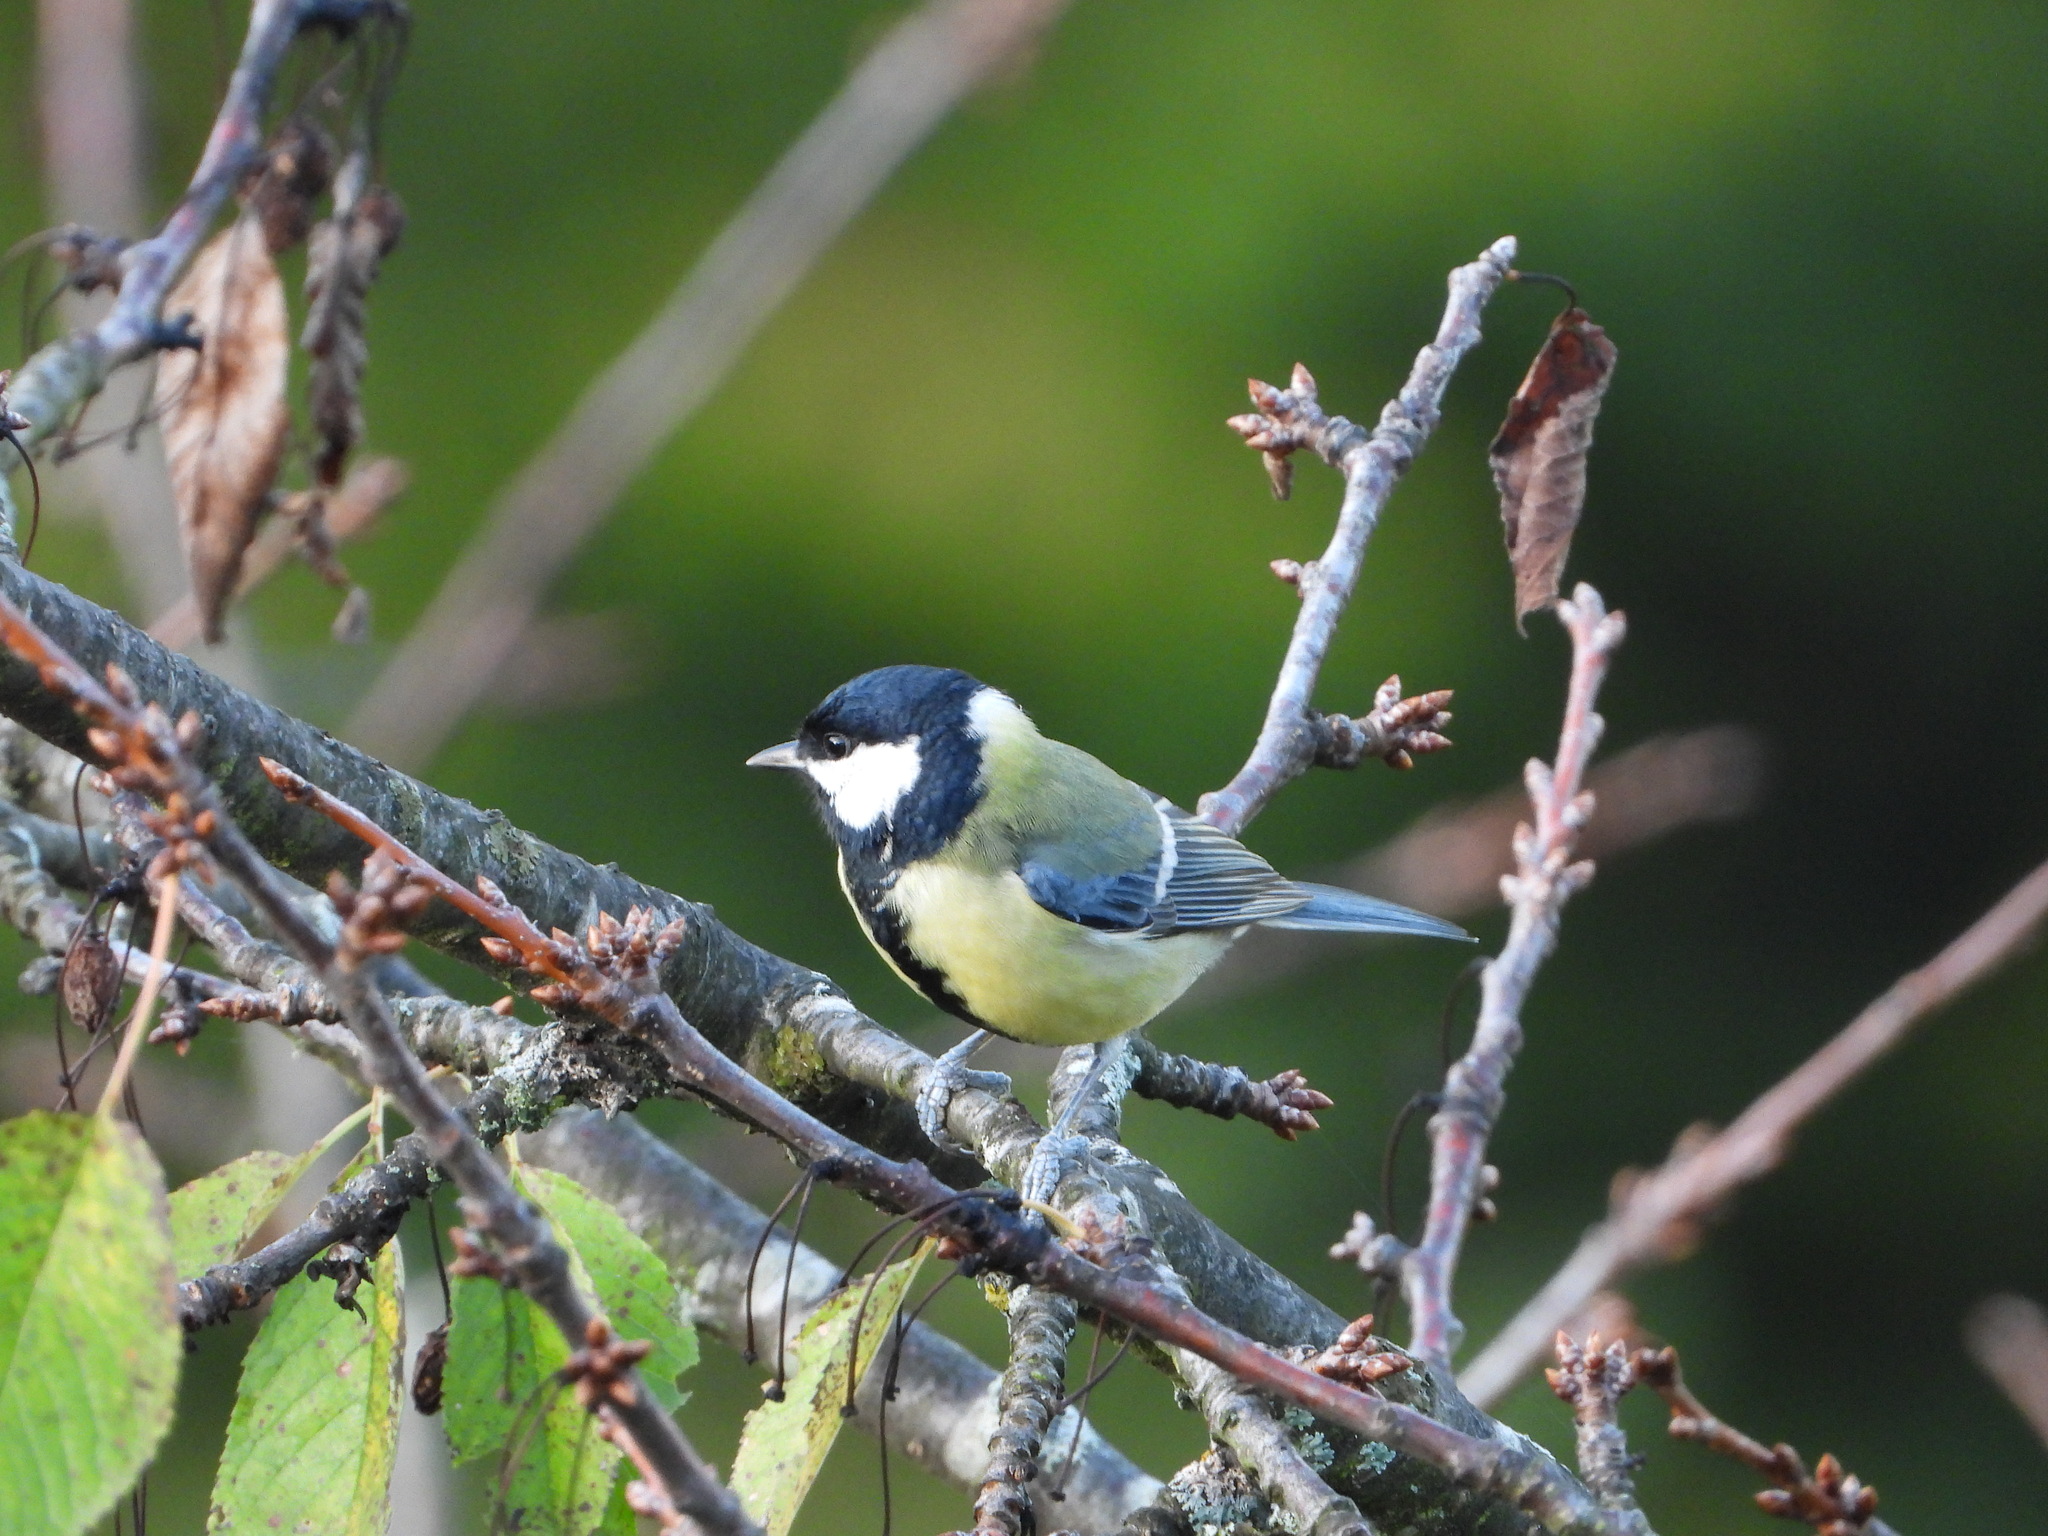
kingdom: Animalia
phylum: Chordata
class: Aves
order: Passeriformes
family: Paridae
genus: Parus
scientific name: Parus major
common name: Great tit
